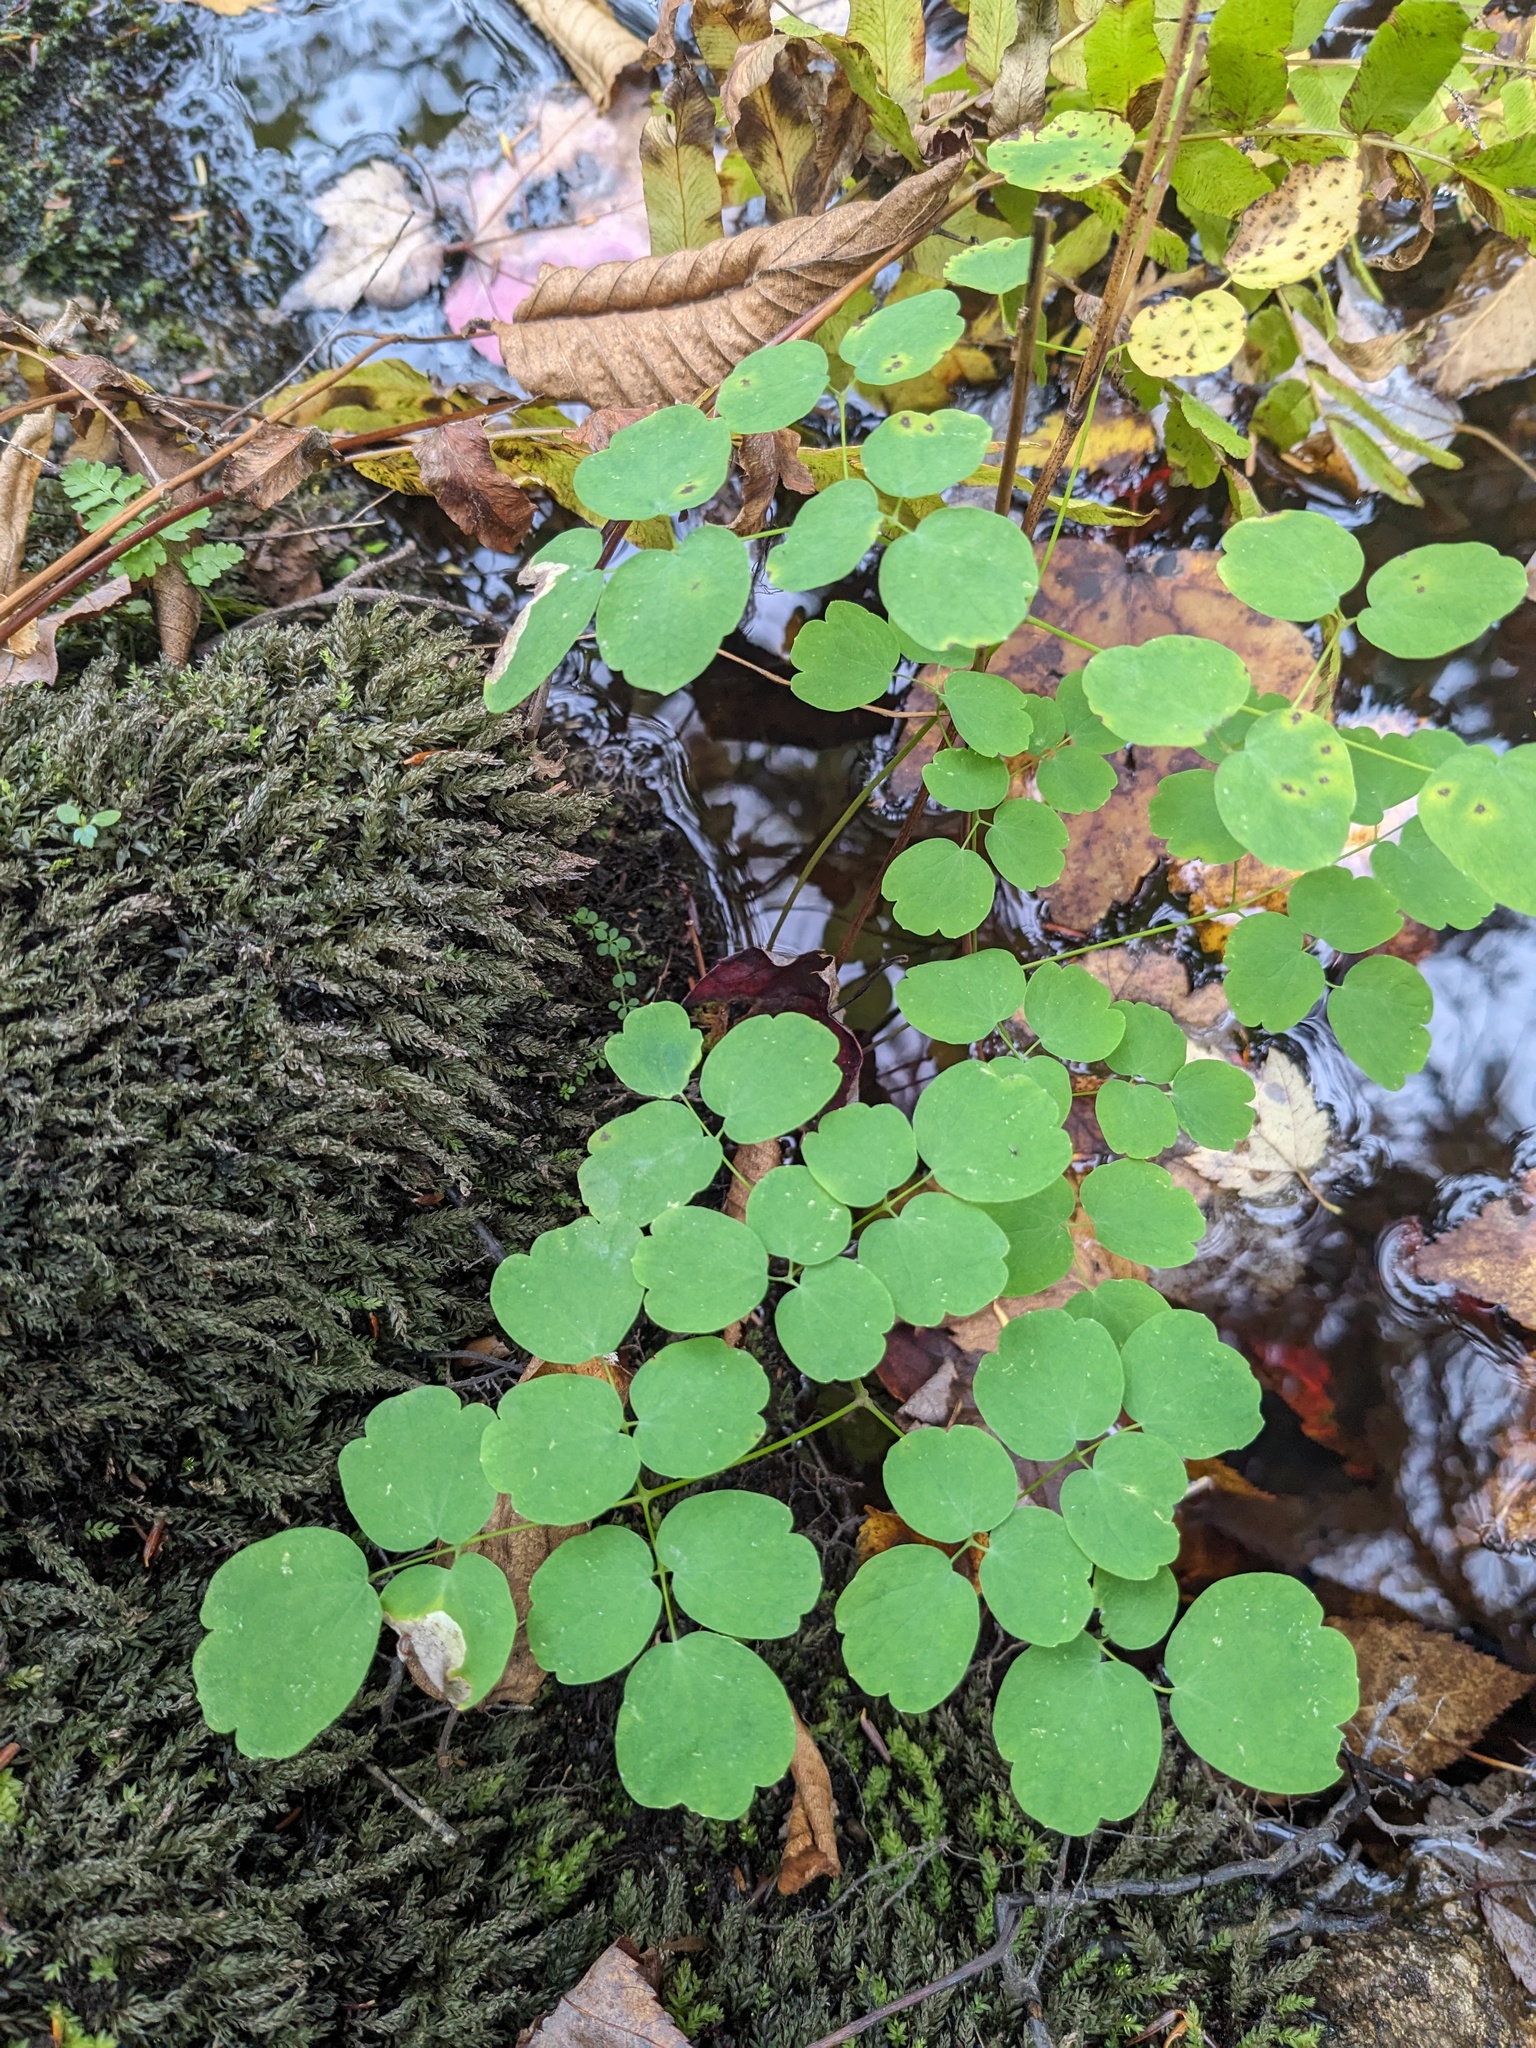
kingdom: Plantae
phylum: Tracheophyta
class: Magnoliopsida
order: Ranunculales
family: Ranunculaceae
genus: Thalictrum
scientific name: Thalictrum pubescens
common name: King-of-the-meadow
